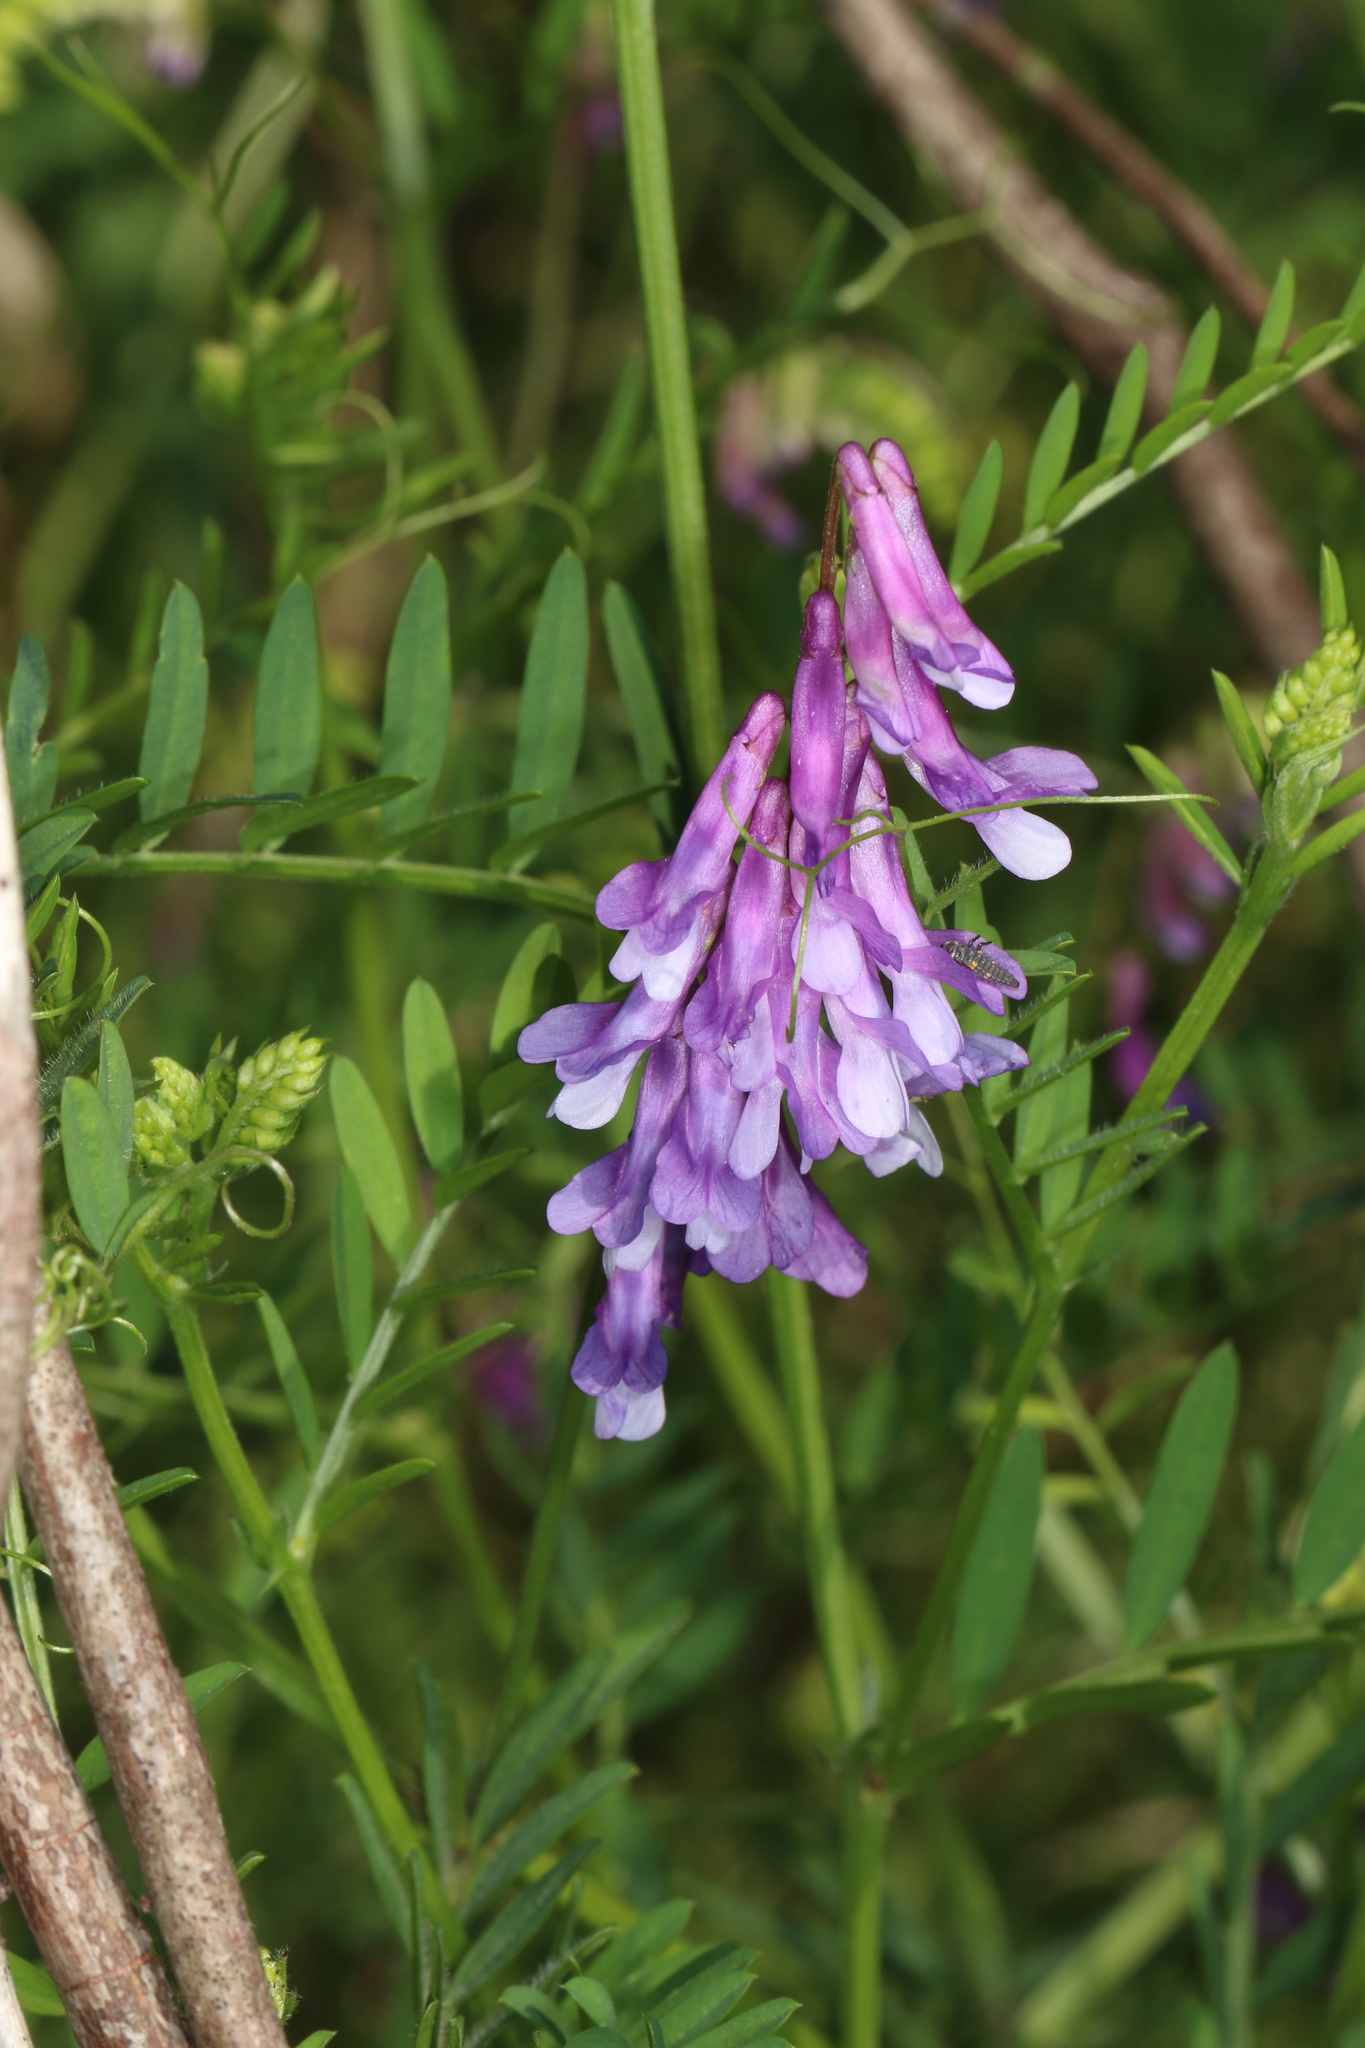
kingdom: Plantae
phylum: Tracheophyta
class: Magnoliopsida
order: Fabales
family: Fabaceae
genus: Vicia
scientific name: Vicia villosa
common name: Fodder vetch
